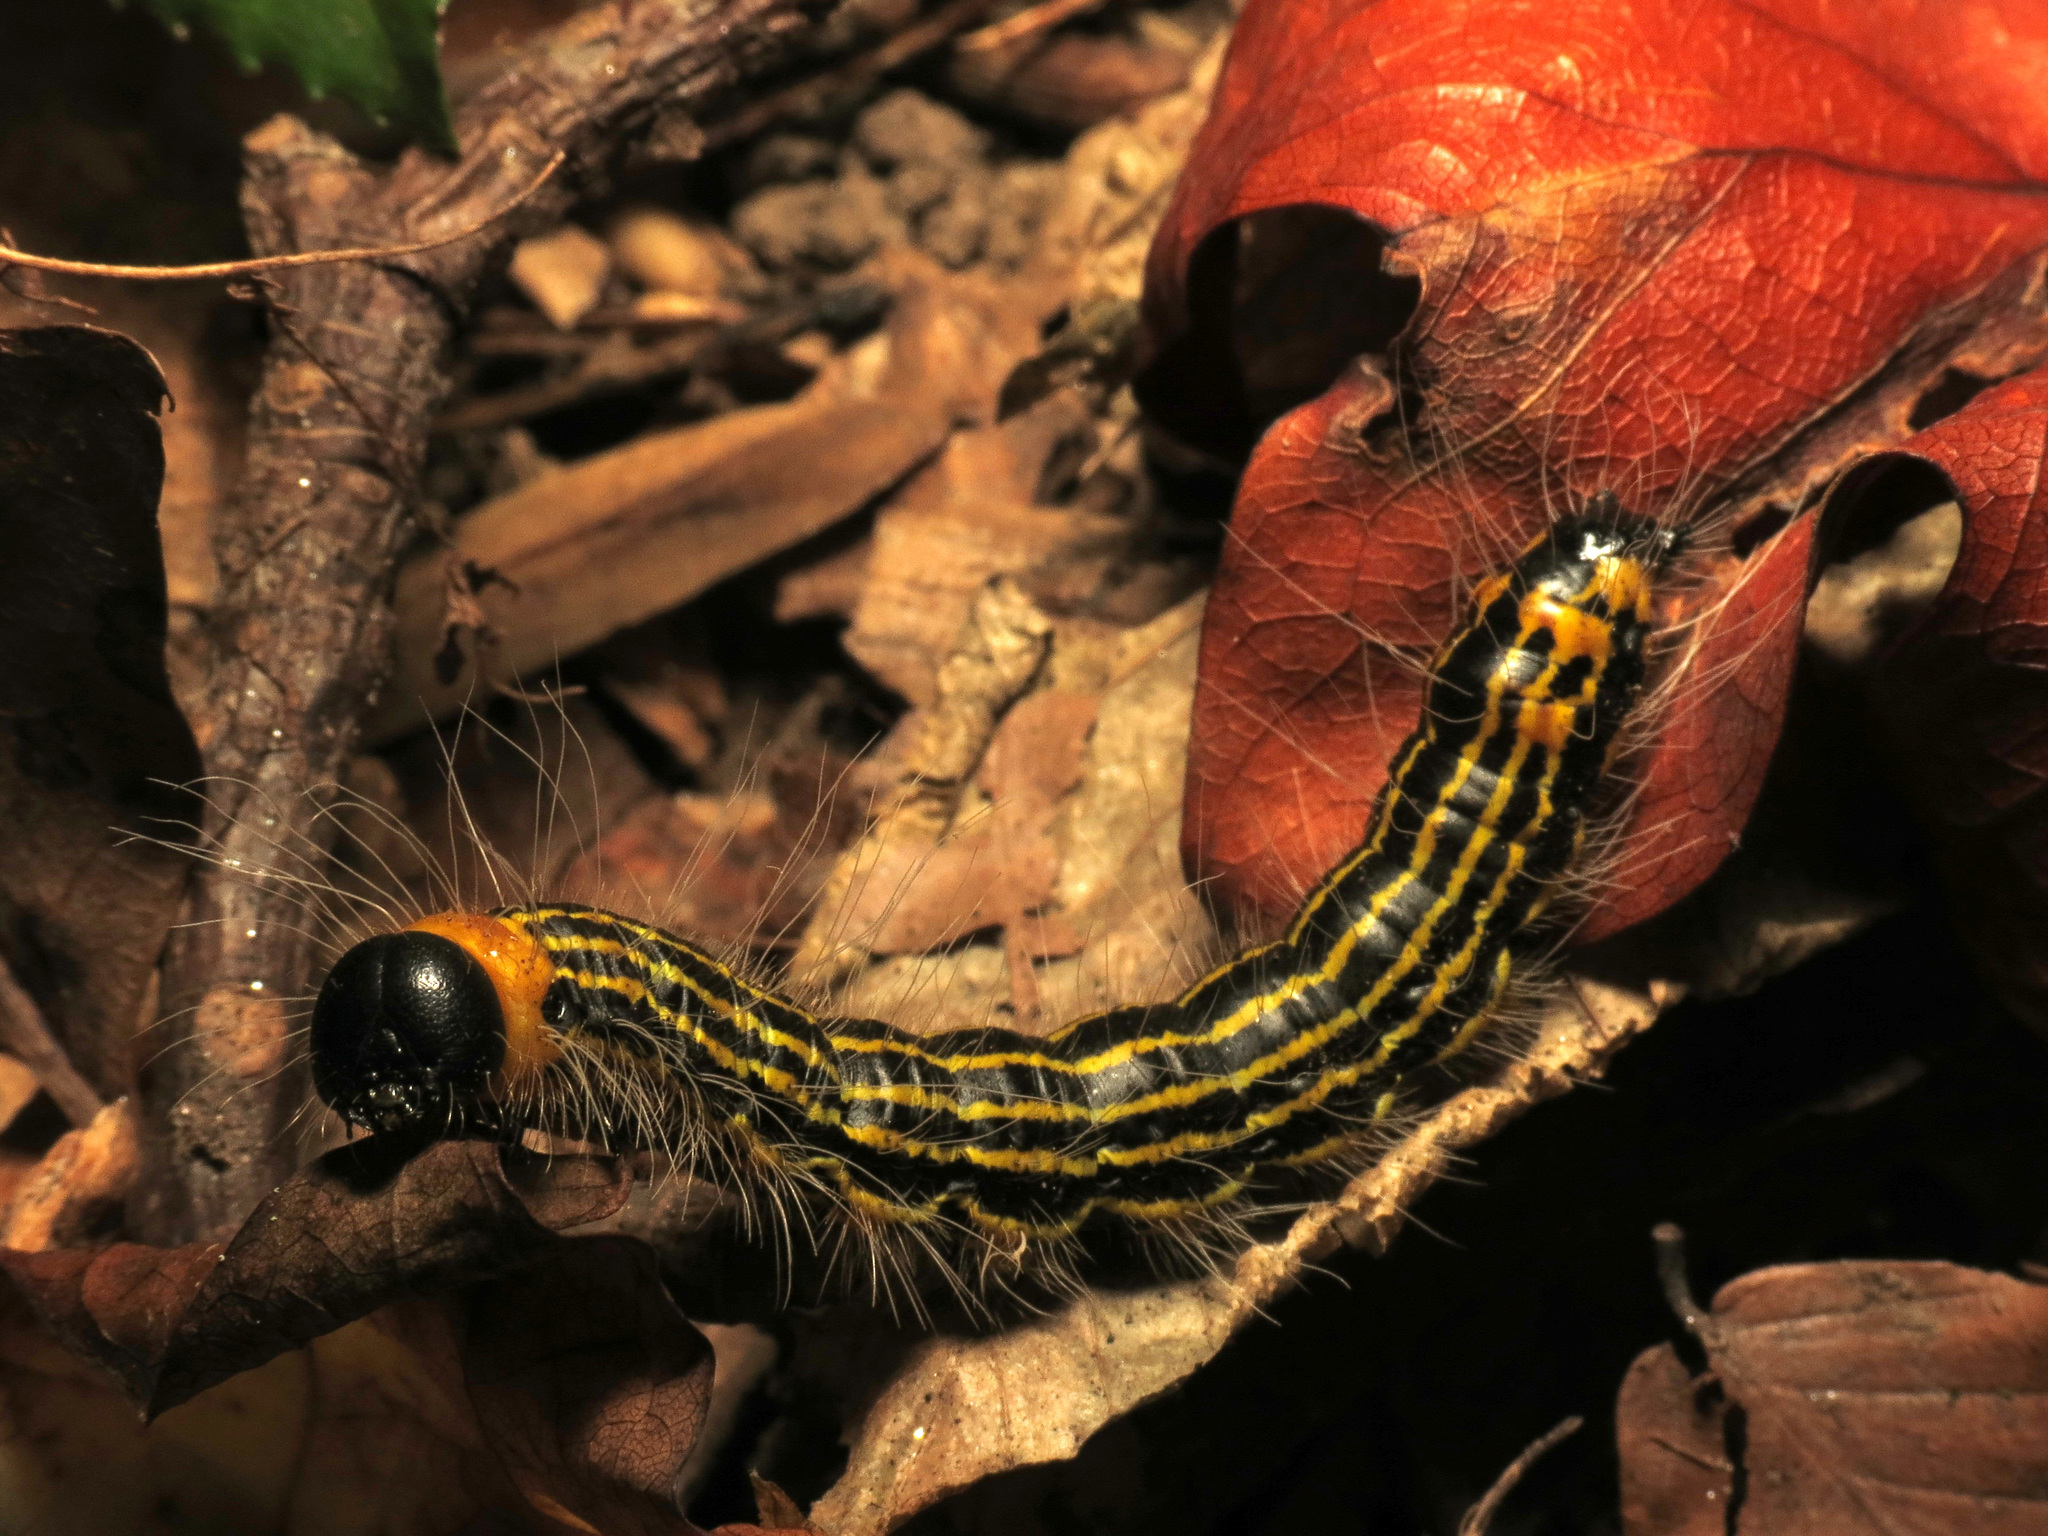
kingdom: Animalia
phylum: Arthropoda
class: Insecta
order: Lepidoptera
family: Notodontidae
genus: Datana
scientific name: Datana drexelii
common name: Drexel's datana
